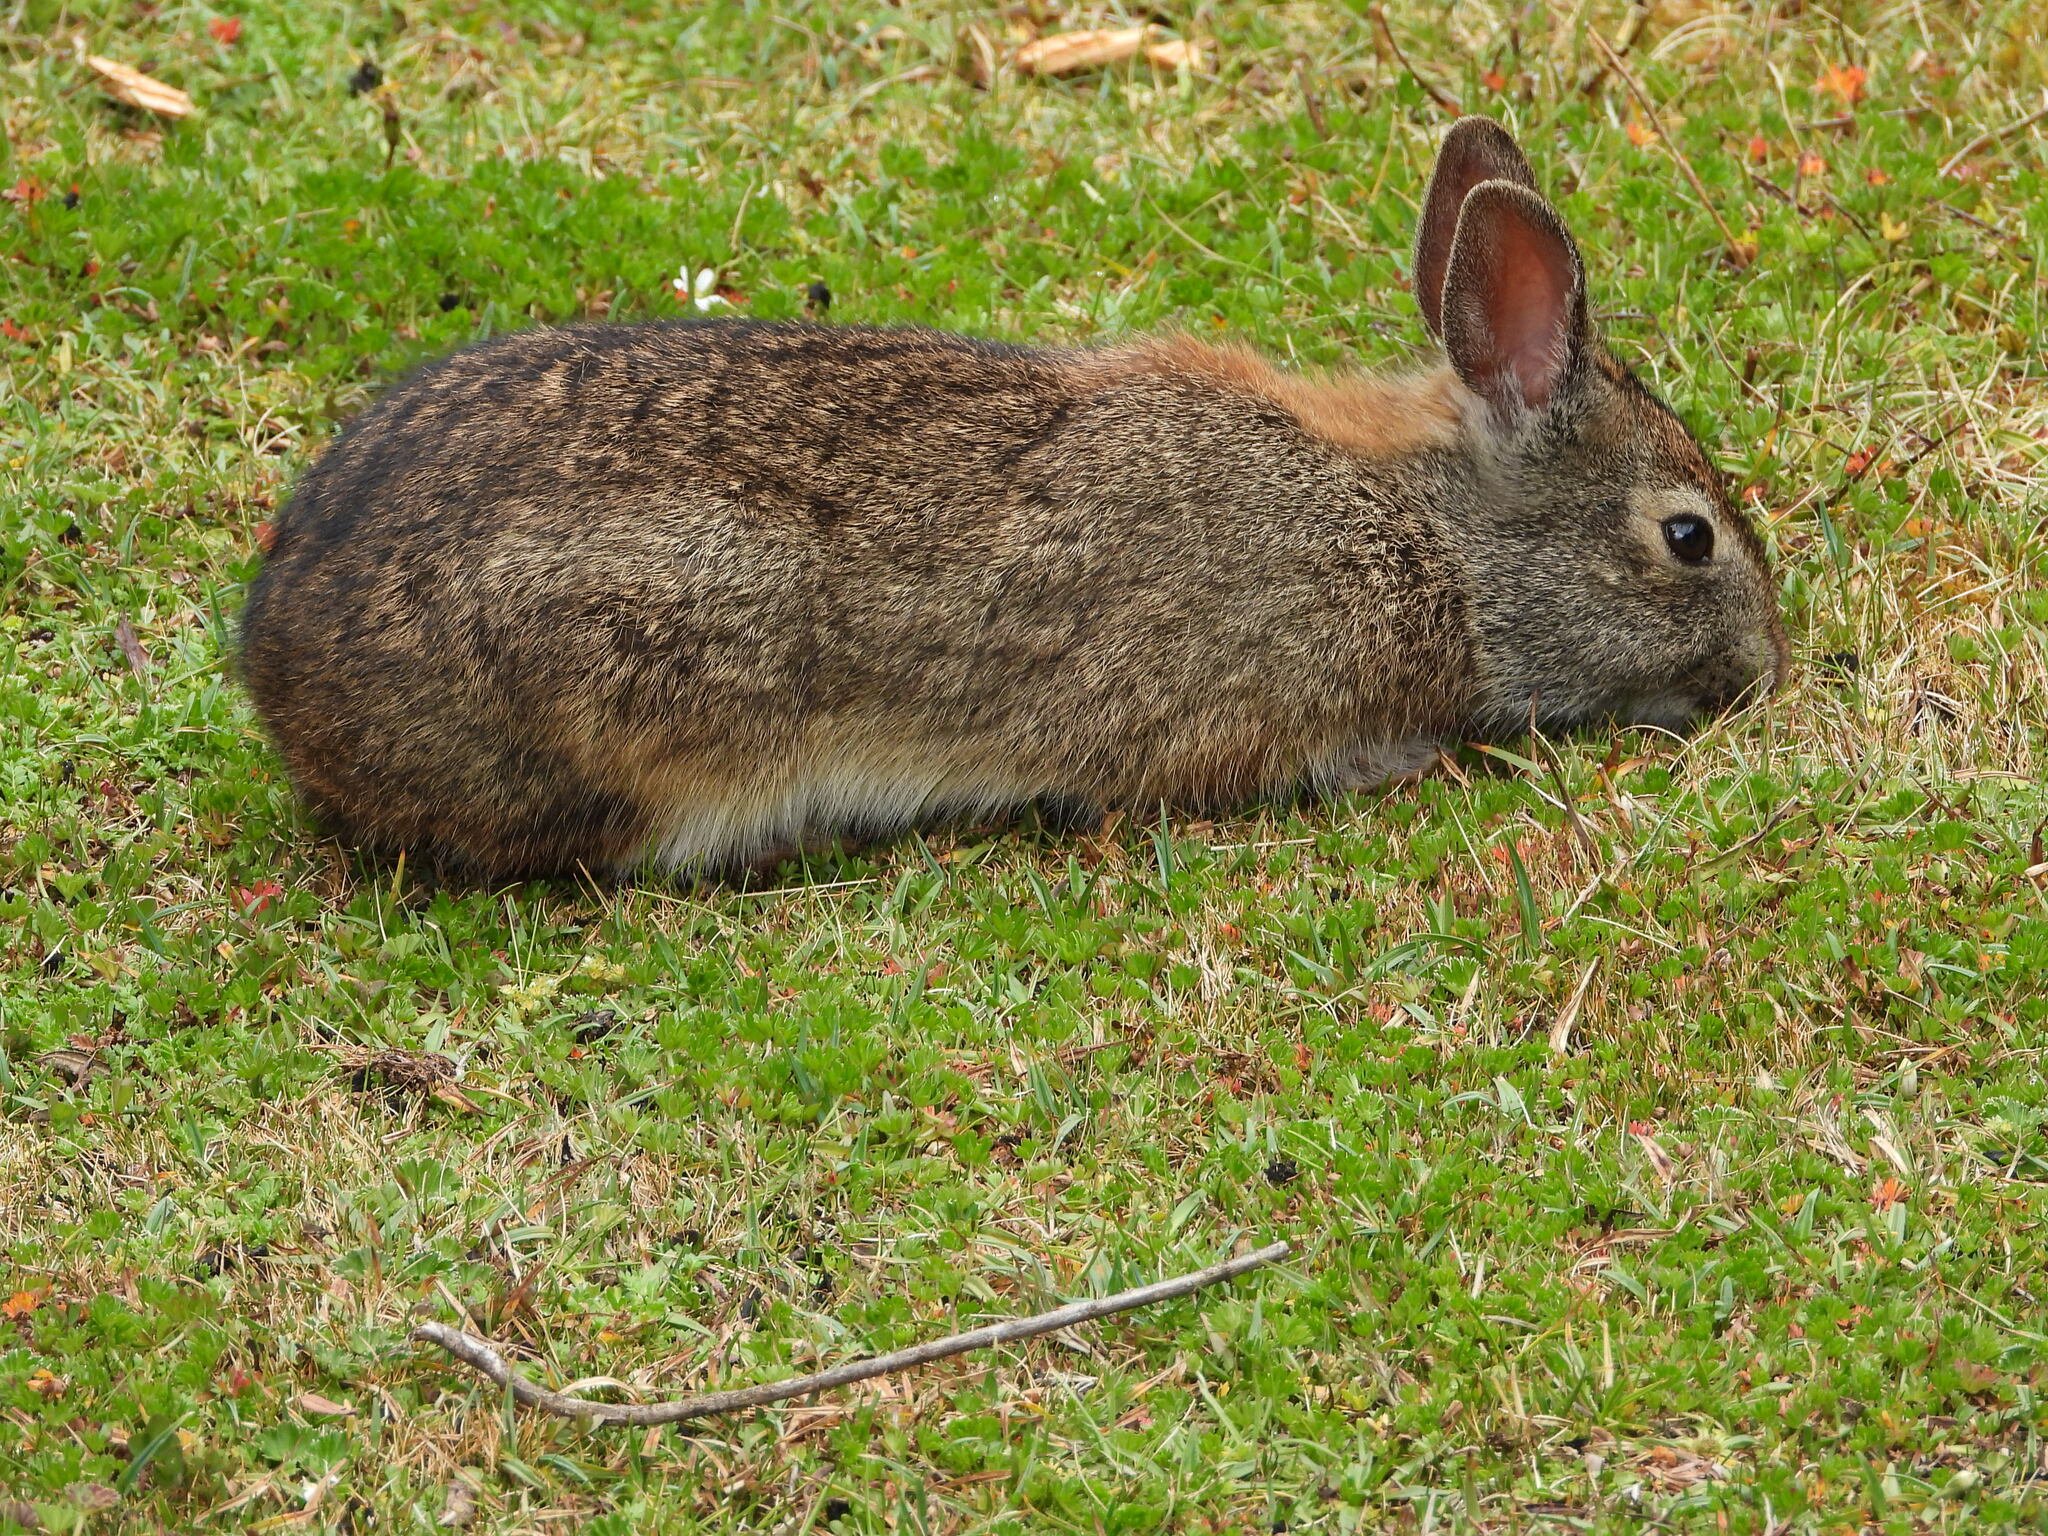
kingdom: Animalia
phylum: Chordata
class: Mammalia
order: Lagomorpha
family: Leporidae
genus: Sylvilagus
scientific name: Sylvilagus andinus
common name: Andean cottontail
